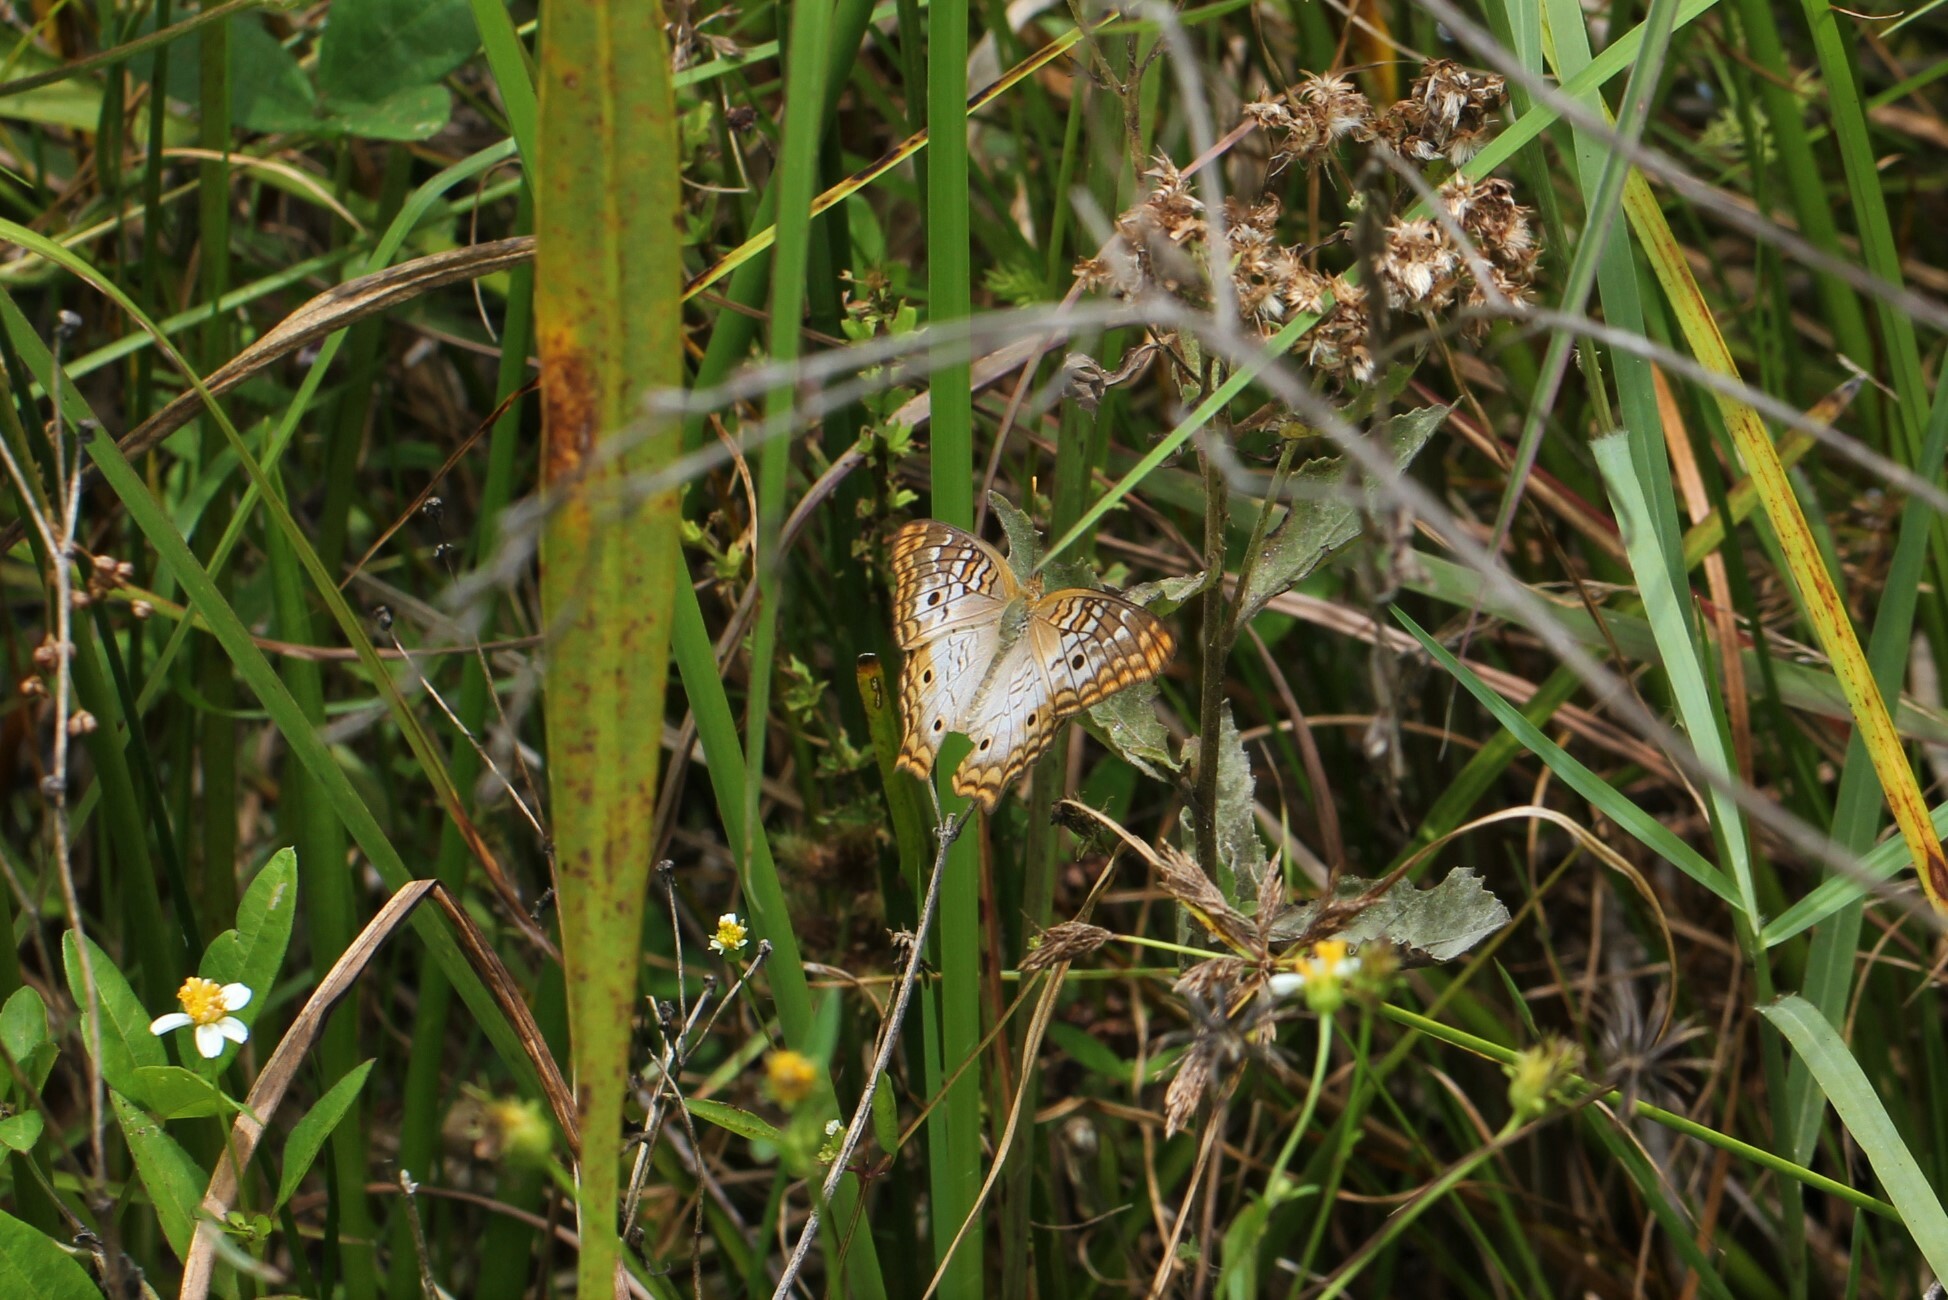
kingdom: Animalia
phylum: Arthropoda
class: Insecta
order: Lepidoptera
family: Nymphalidae
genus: Anartia
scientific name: Anartia jatrophae
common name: White peacock
